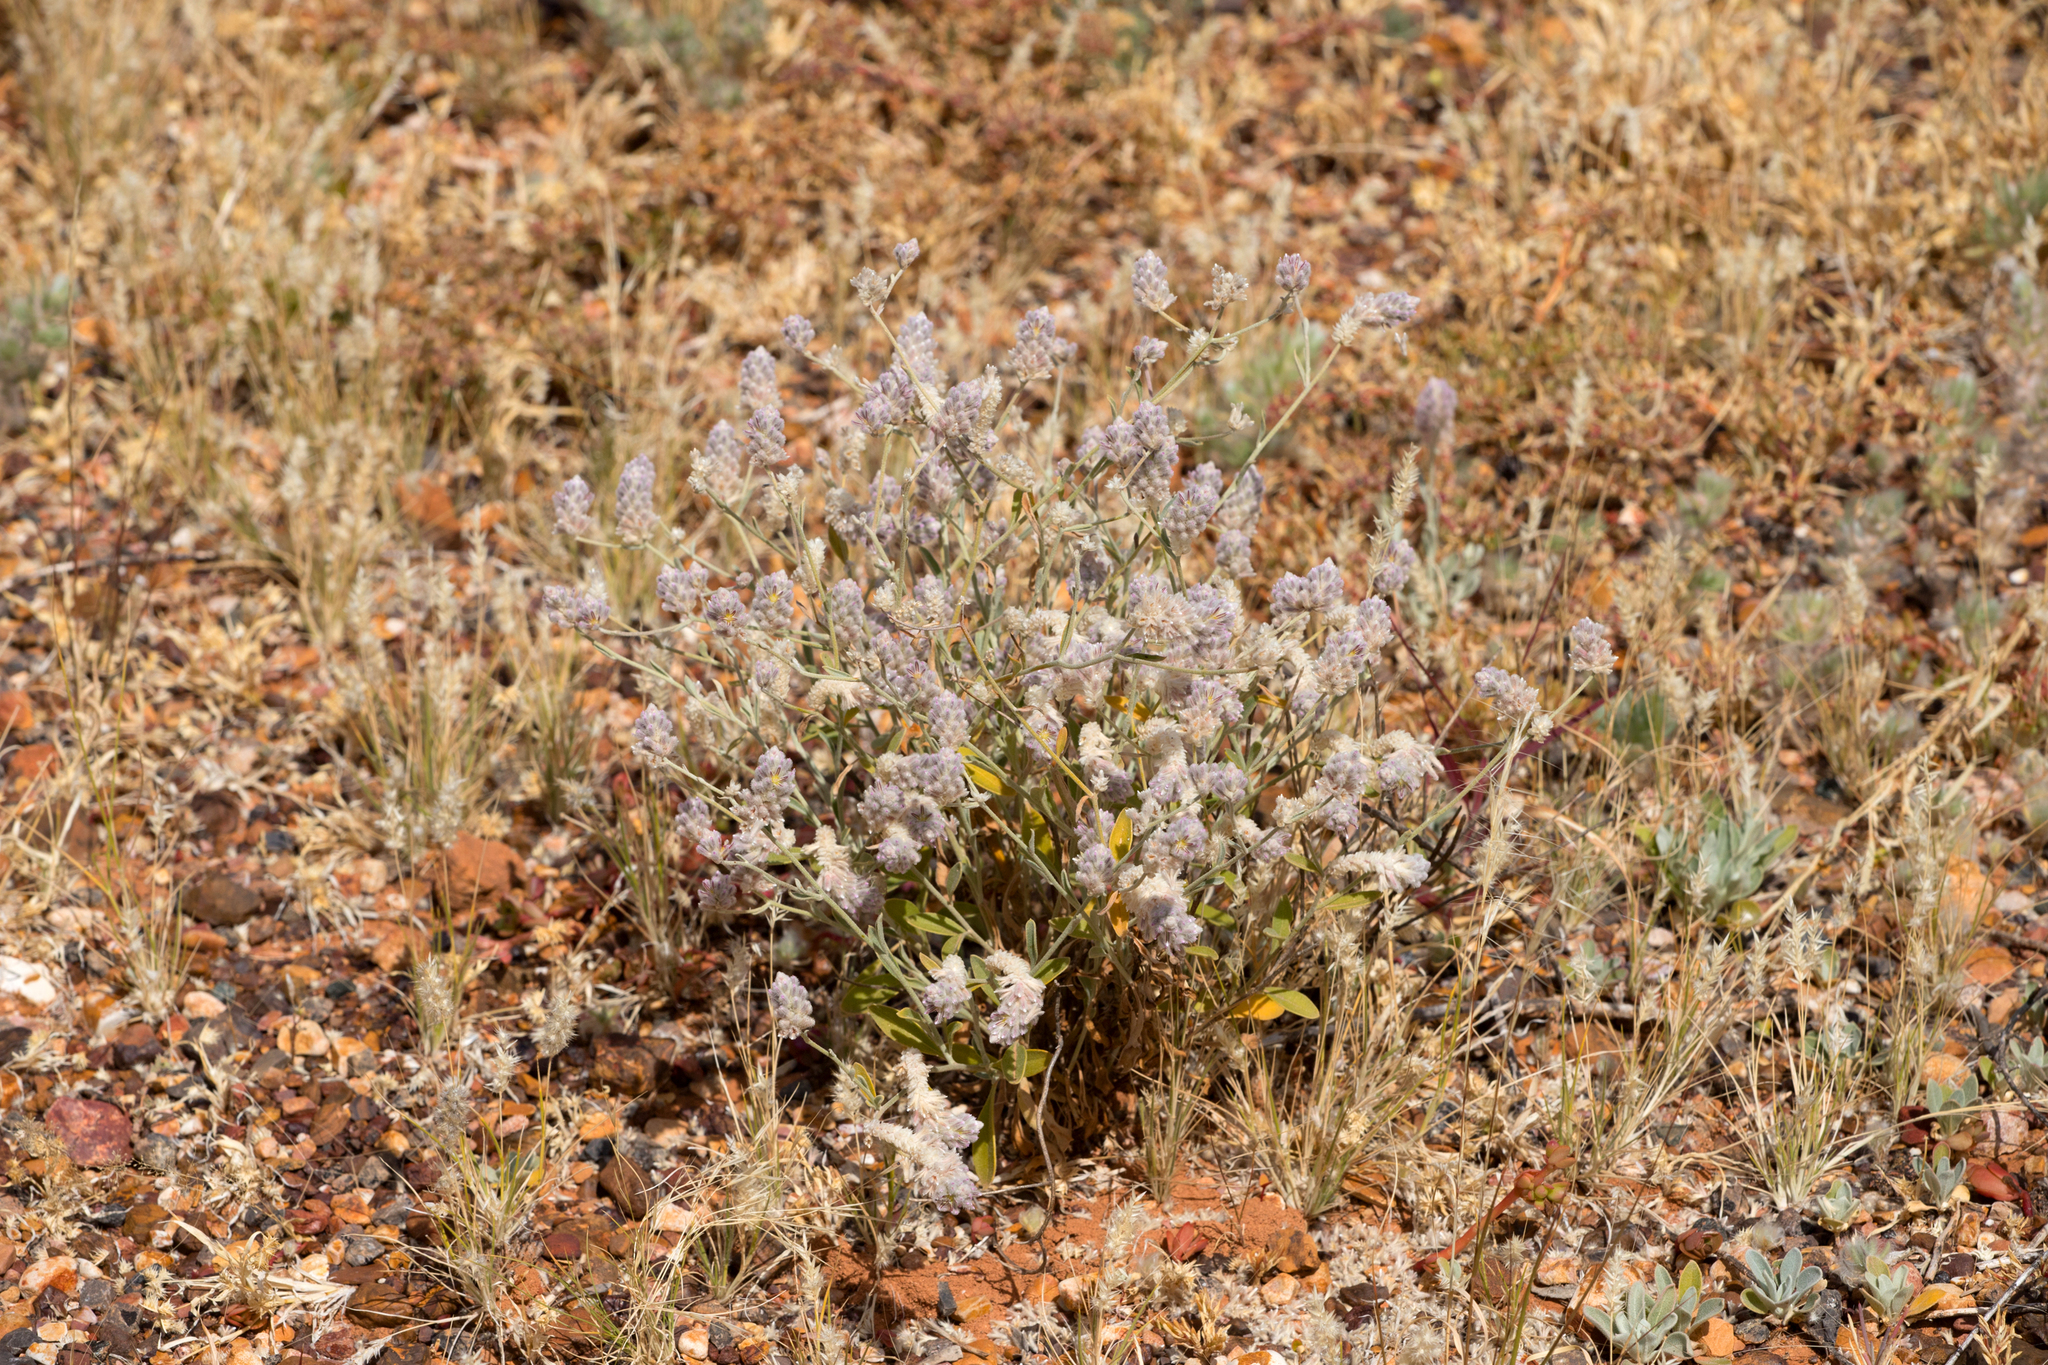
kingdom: Plantae
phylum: Tracheophyta
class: Magnoliopsida
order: Caryophyllales
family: Amaranthaceae
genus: Ptilotus
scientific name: Ptilotus parviflorus
